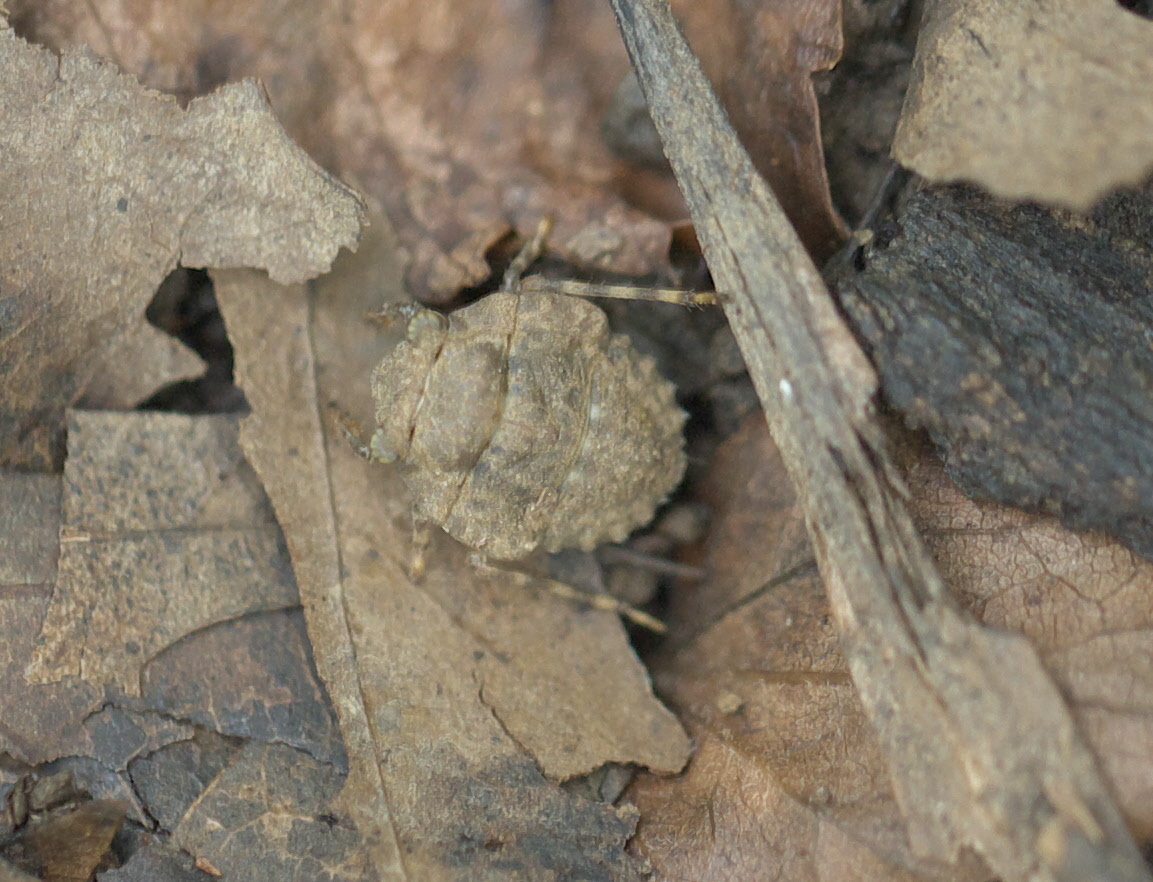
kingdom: Animalia
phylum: Arthropoda
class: Insecta
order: Hemiptera
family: Gelastocoridae
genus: Gelastocoris
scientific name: Gelastocoris oculatus
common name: Toad bug
